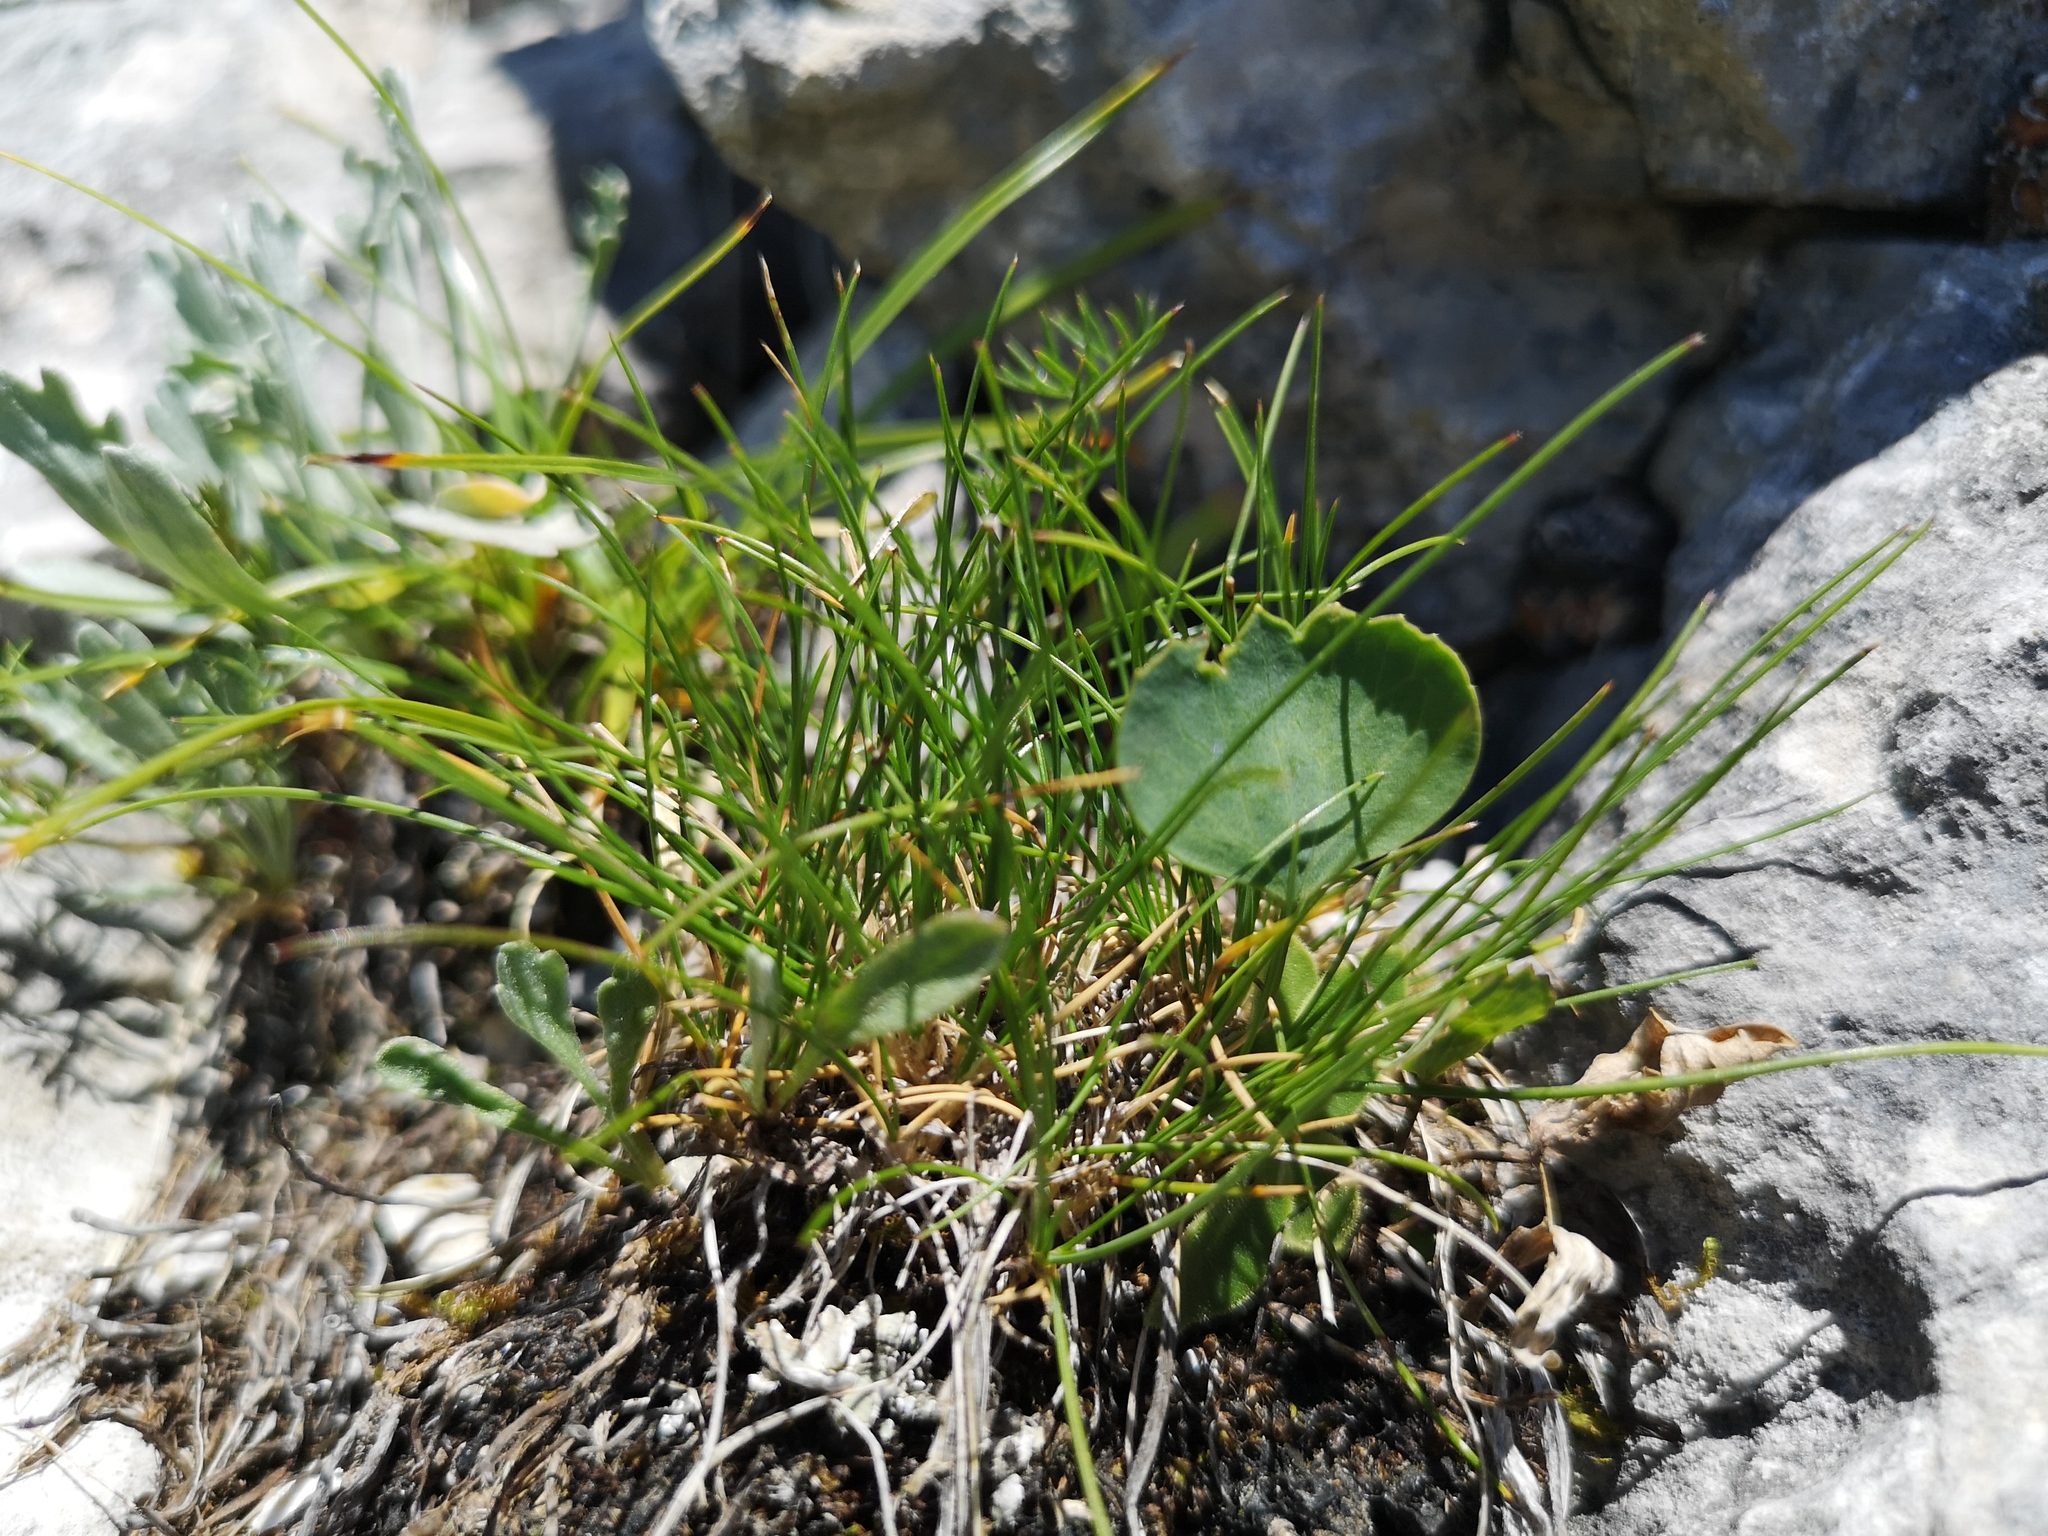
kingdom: Plantae
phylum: Tracheophyta
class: Magnoliopsida
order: Ranunculales
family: Ranunculaceae
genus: Ranunculus
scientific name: Ranunculus hybridus
